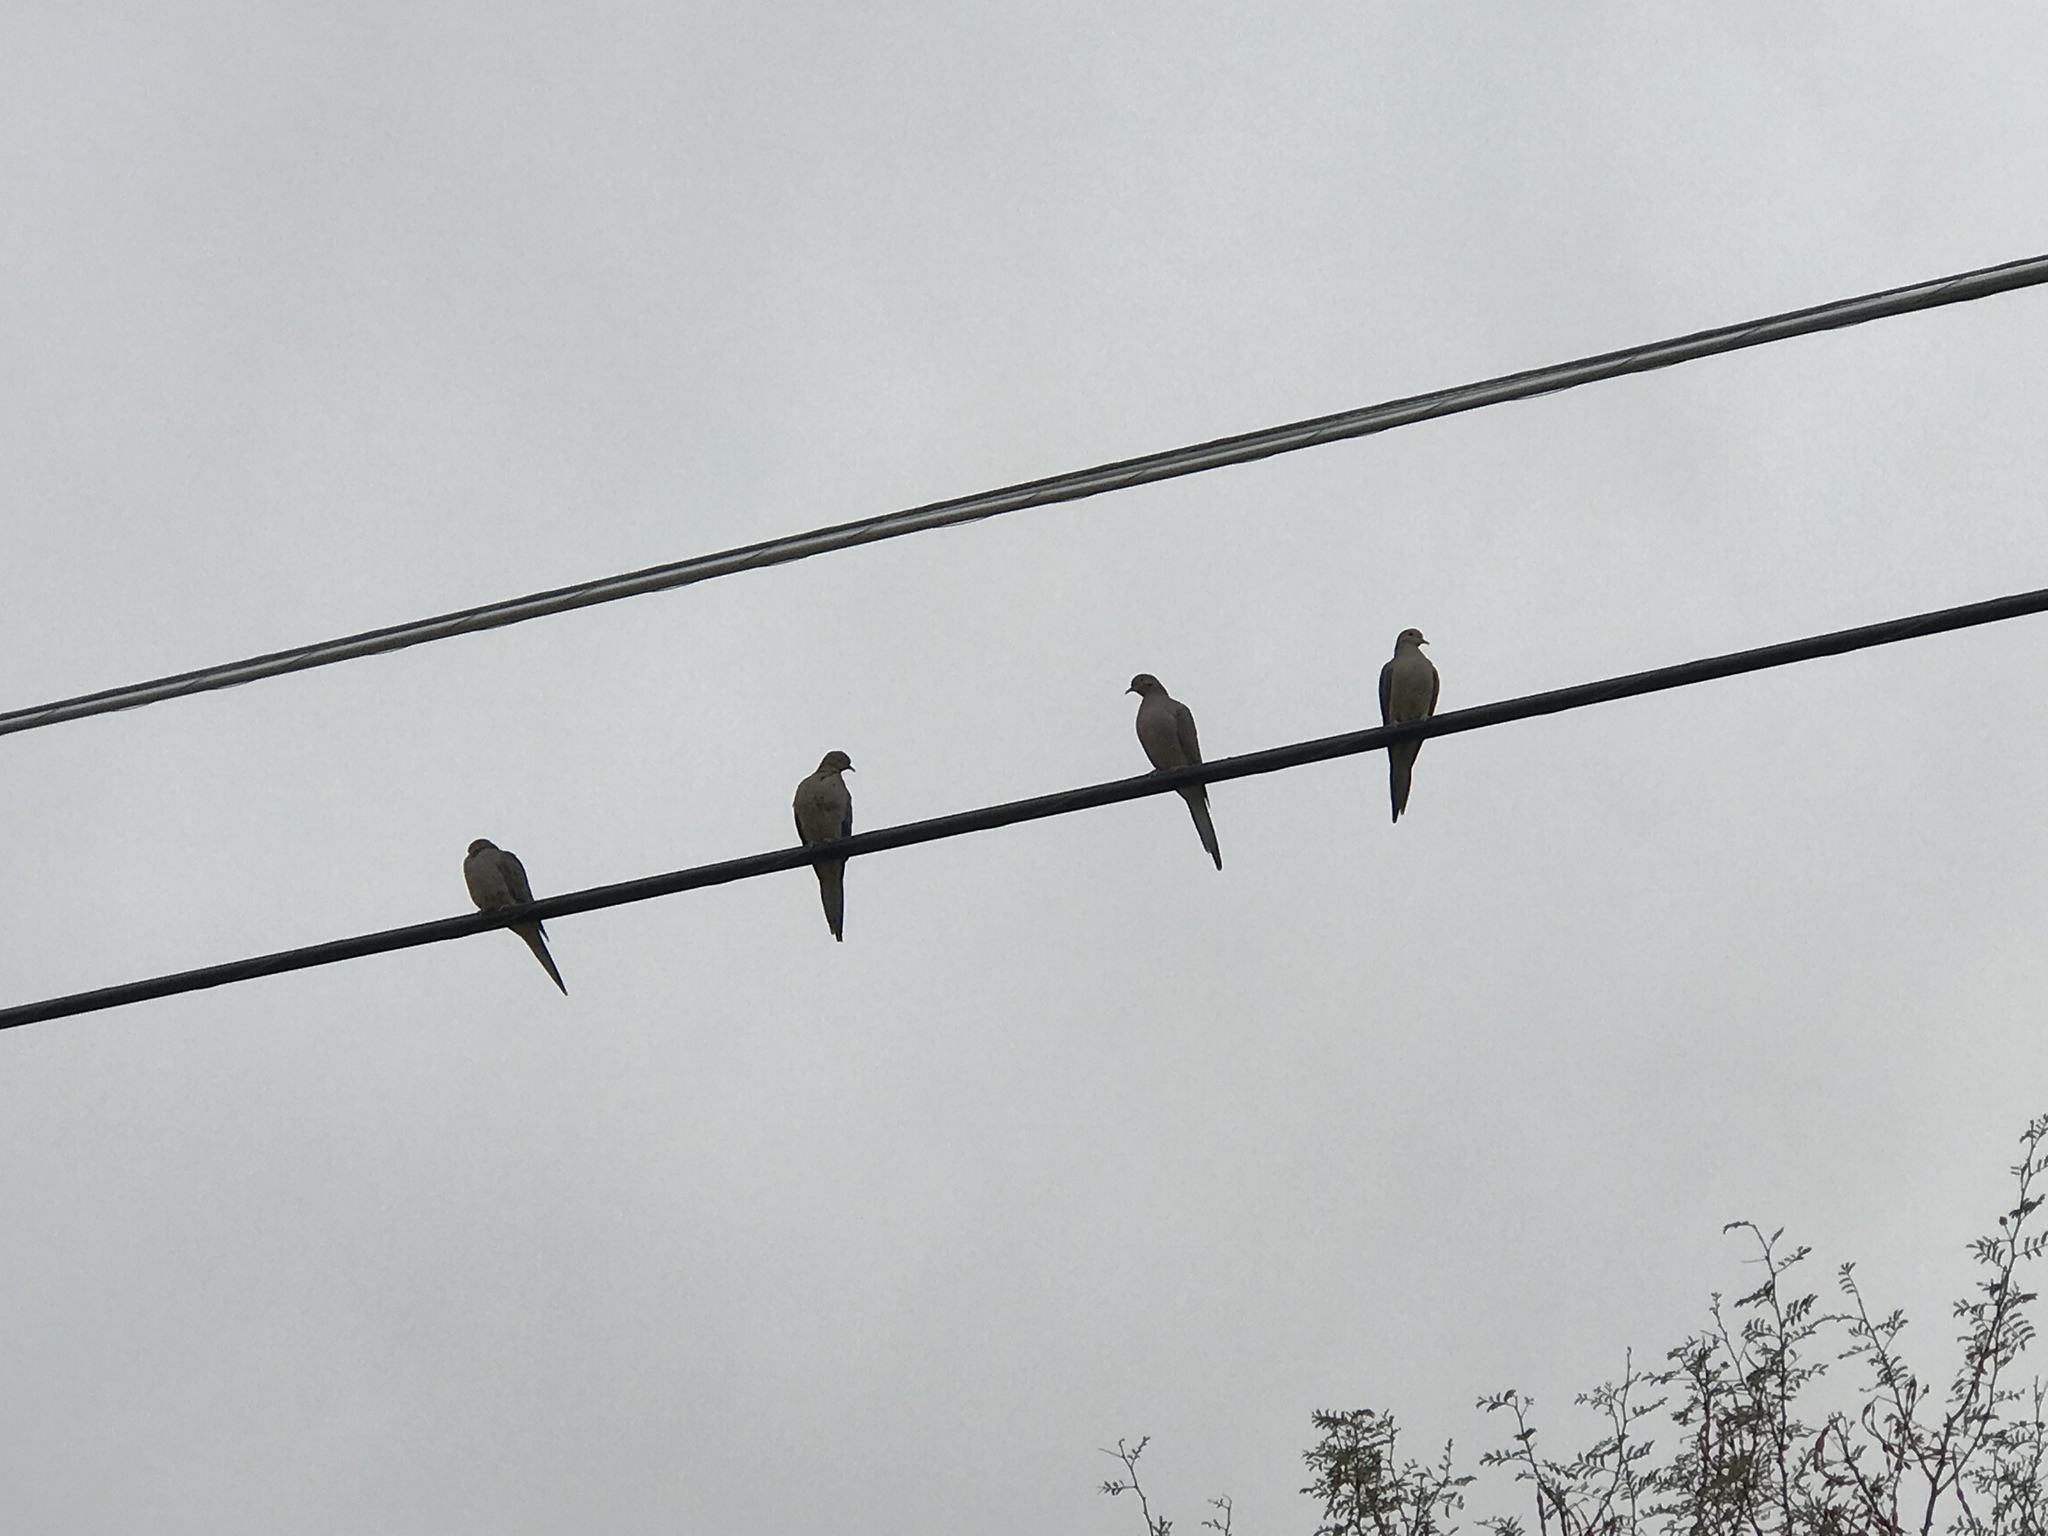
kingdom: Animalia
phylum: Chordata
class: Aves
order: Columbiformes
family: Columbidae
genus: Zenaida
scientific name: Zenaida macroura
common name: Mourning dove
